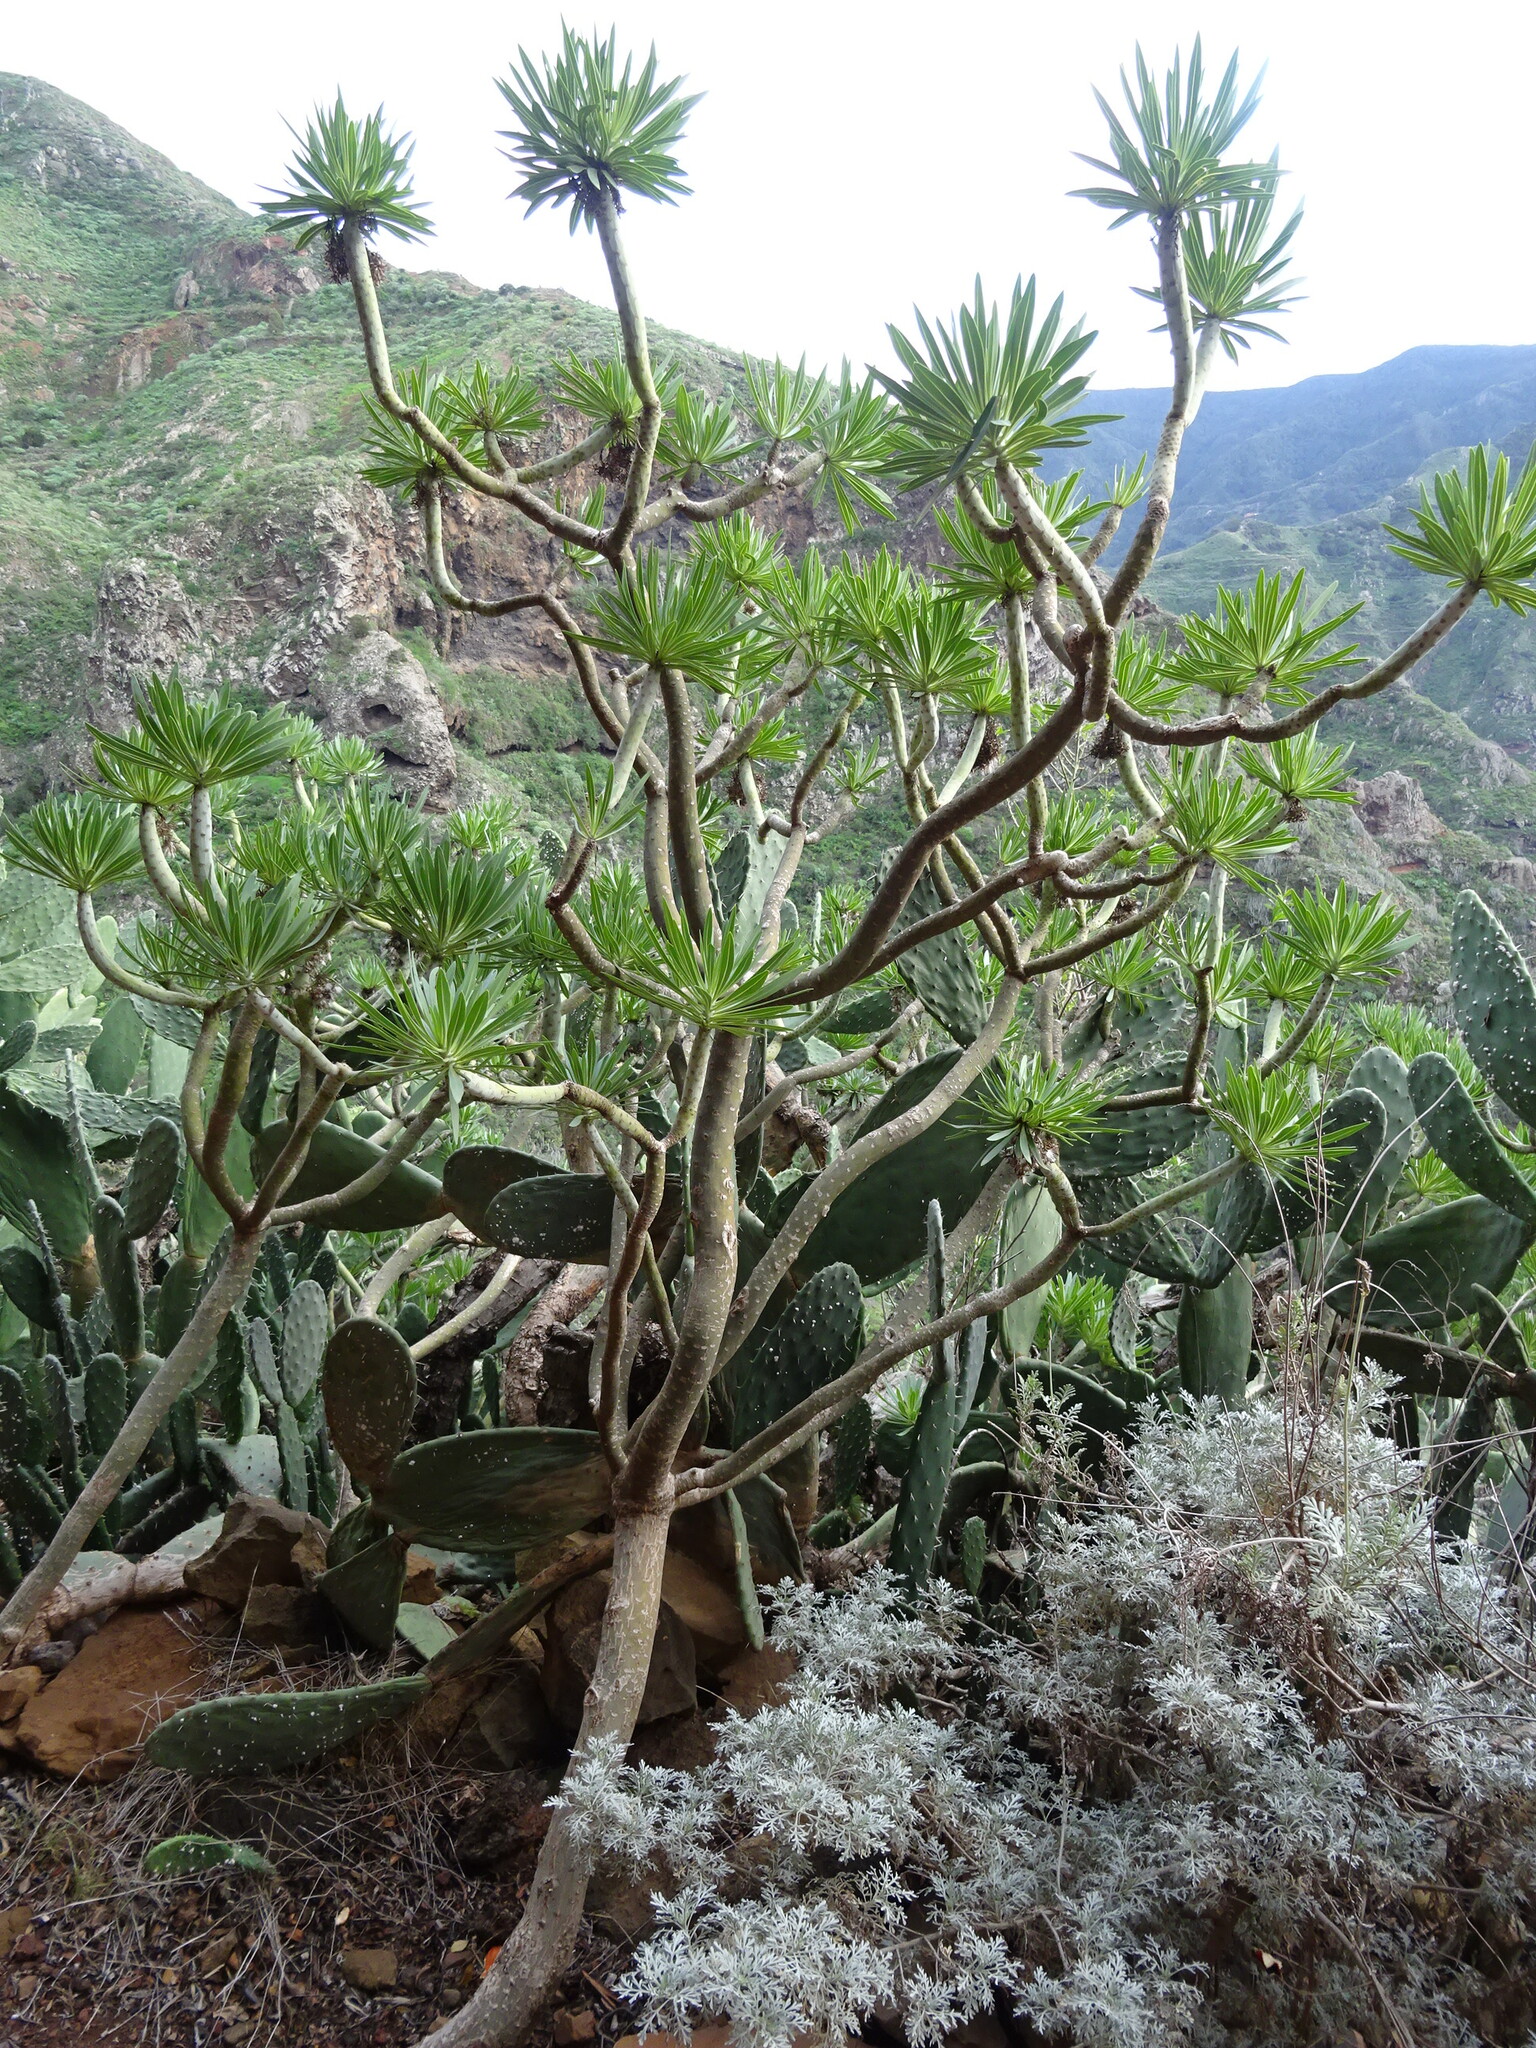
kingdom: Plantae
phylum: Tracheophyta
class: Magnoliopsida
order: Asterales
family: Asteraceae
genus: Kleinia
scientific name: Kleinia neriifolia
